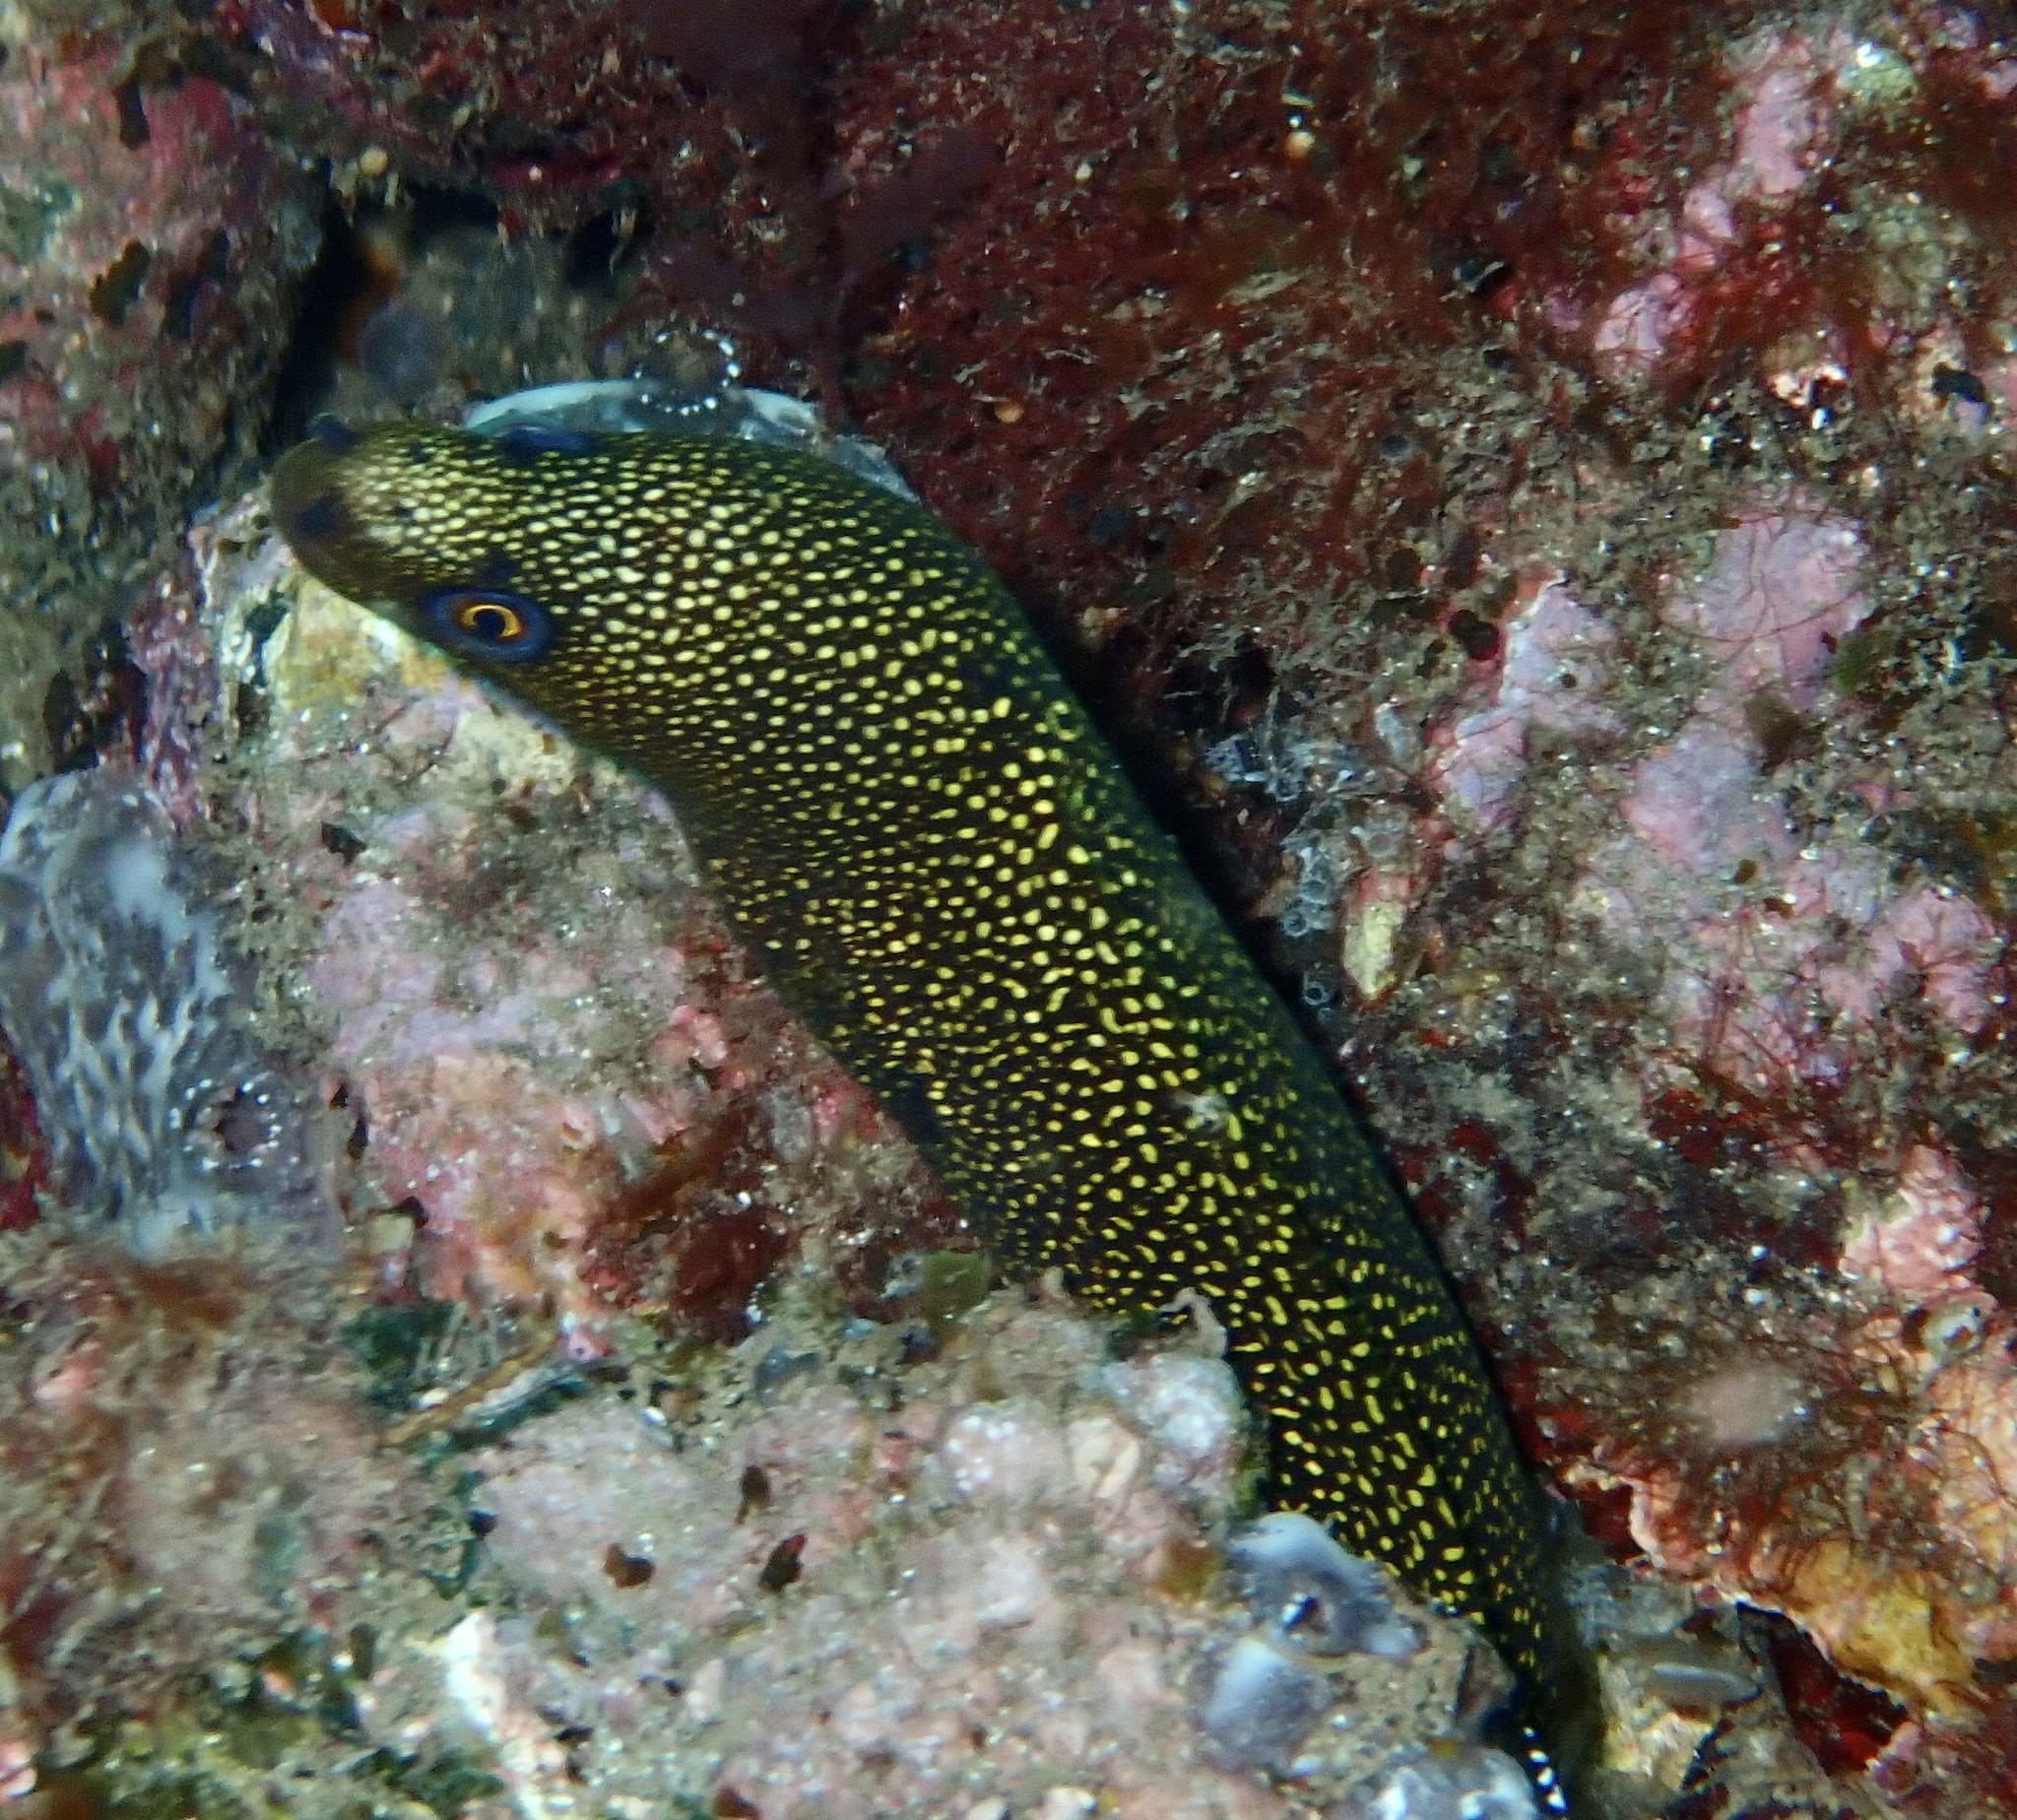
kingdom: Animalia
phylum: Chordata
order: Anguilliformes
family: Muraenidae
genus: Gymnothorax
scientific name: Gymnothorax miliaris
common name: Goldentail moray
